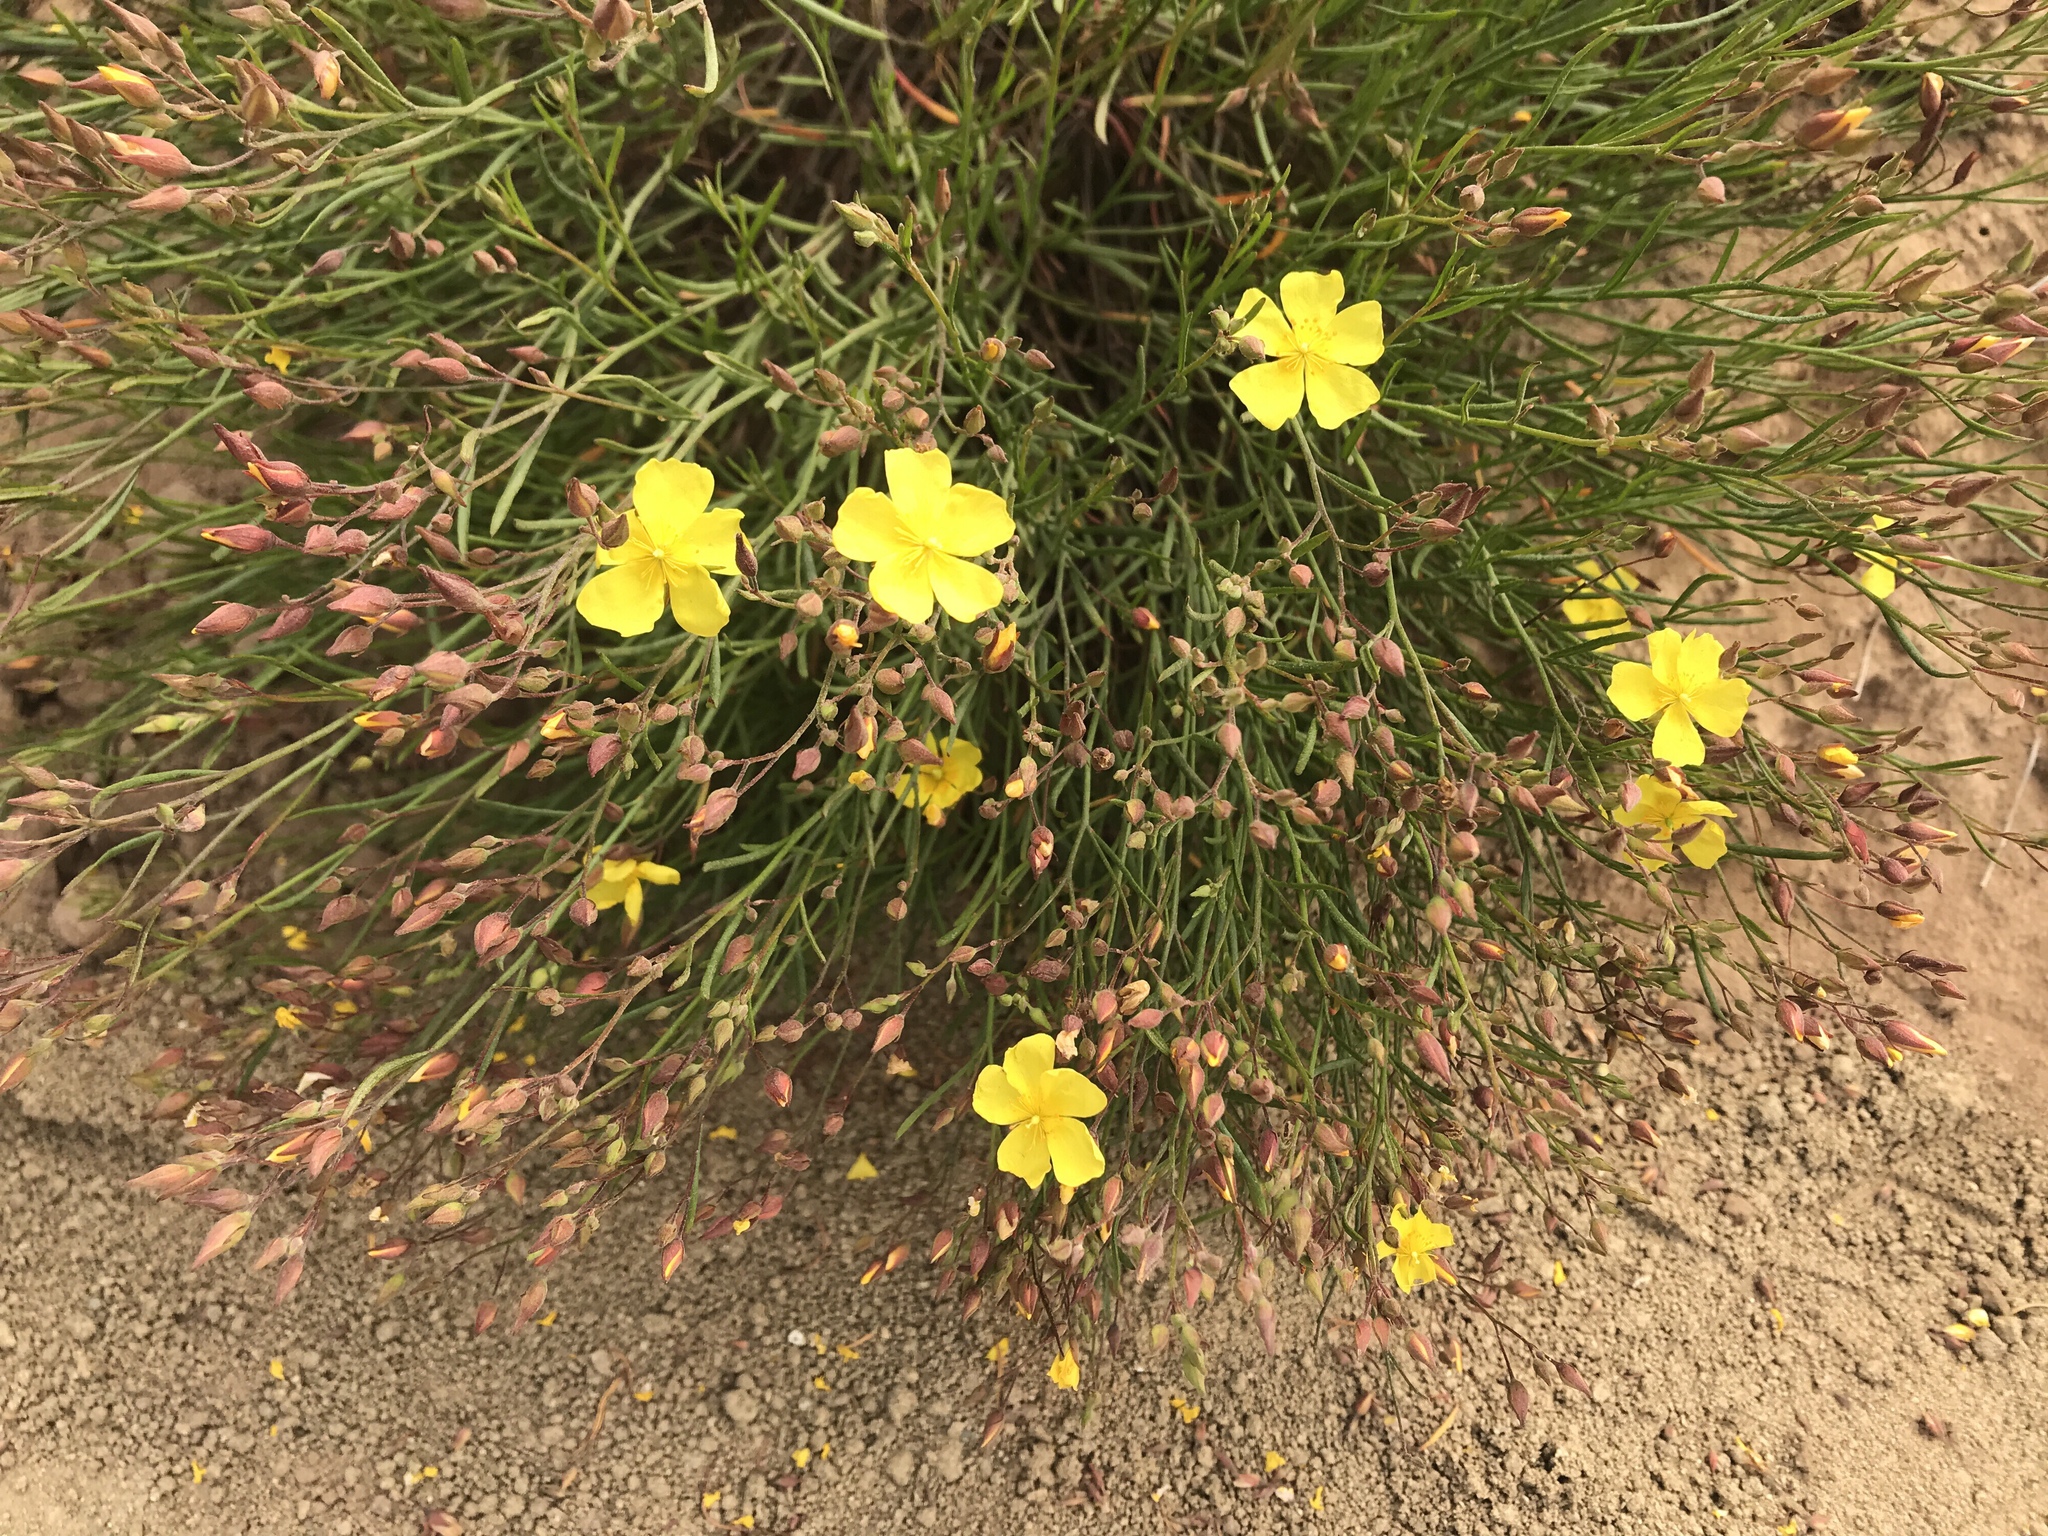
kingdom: Plantae
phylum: Tracheophyta
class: Magnoliopsida
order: Malvales
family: Cistaceae
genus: Crocanthemum
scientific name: Crocanthemum scoparium
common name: Broom-rose
